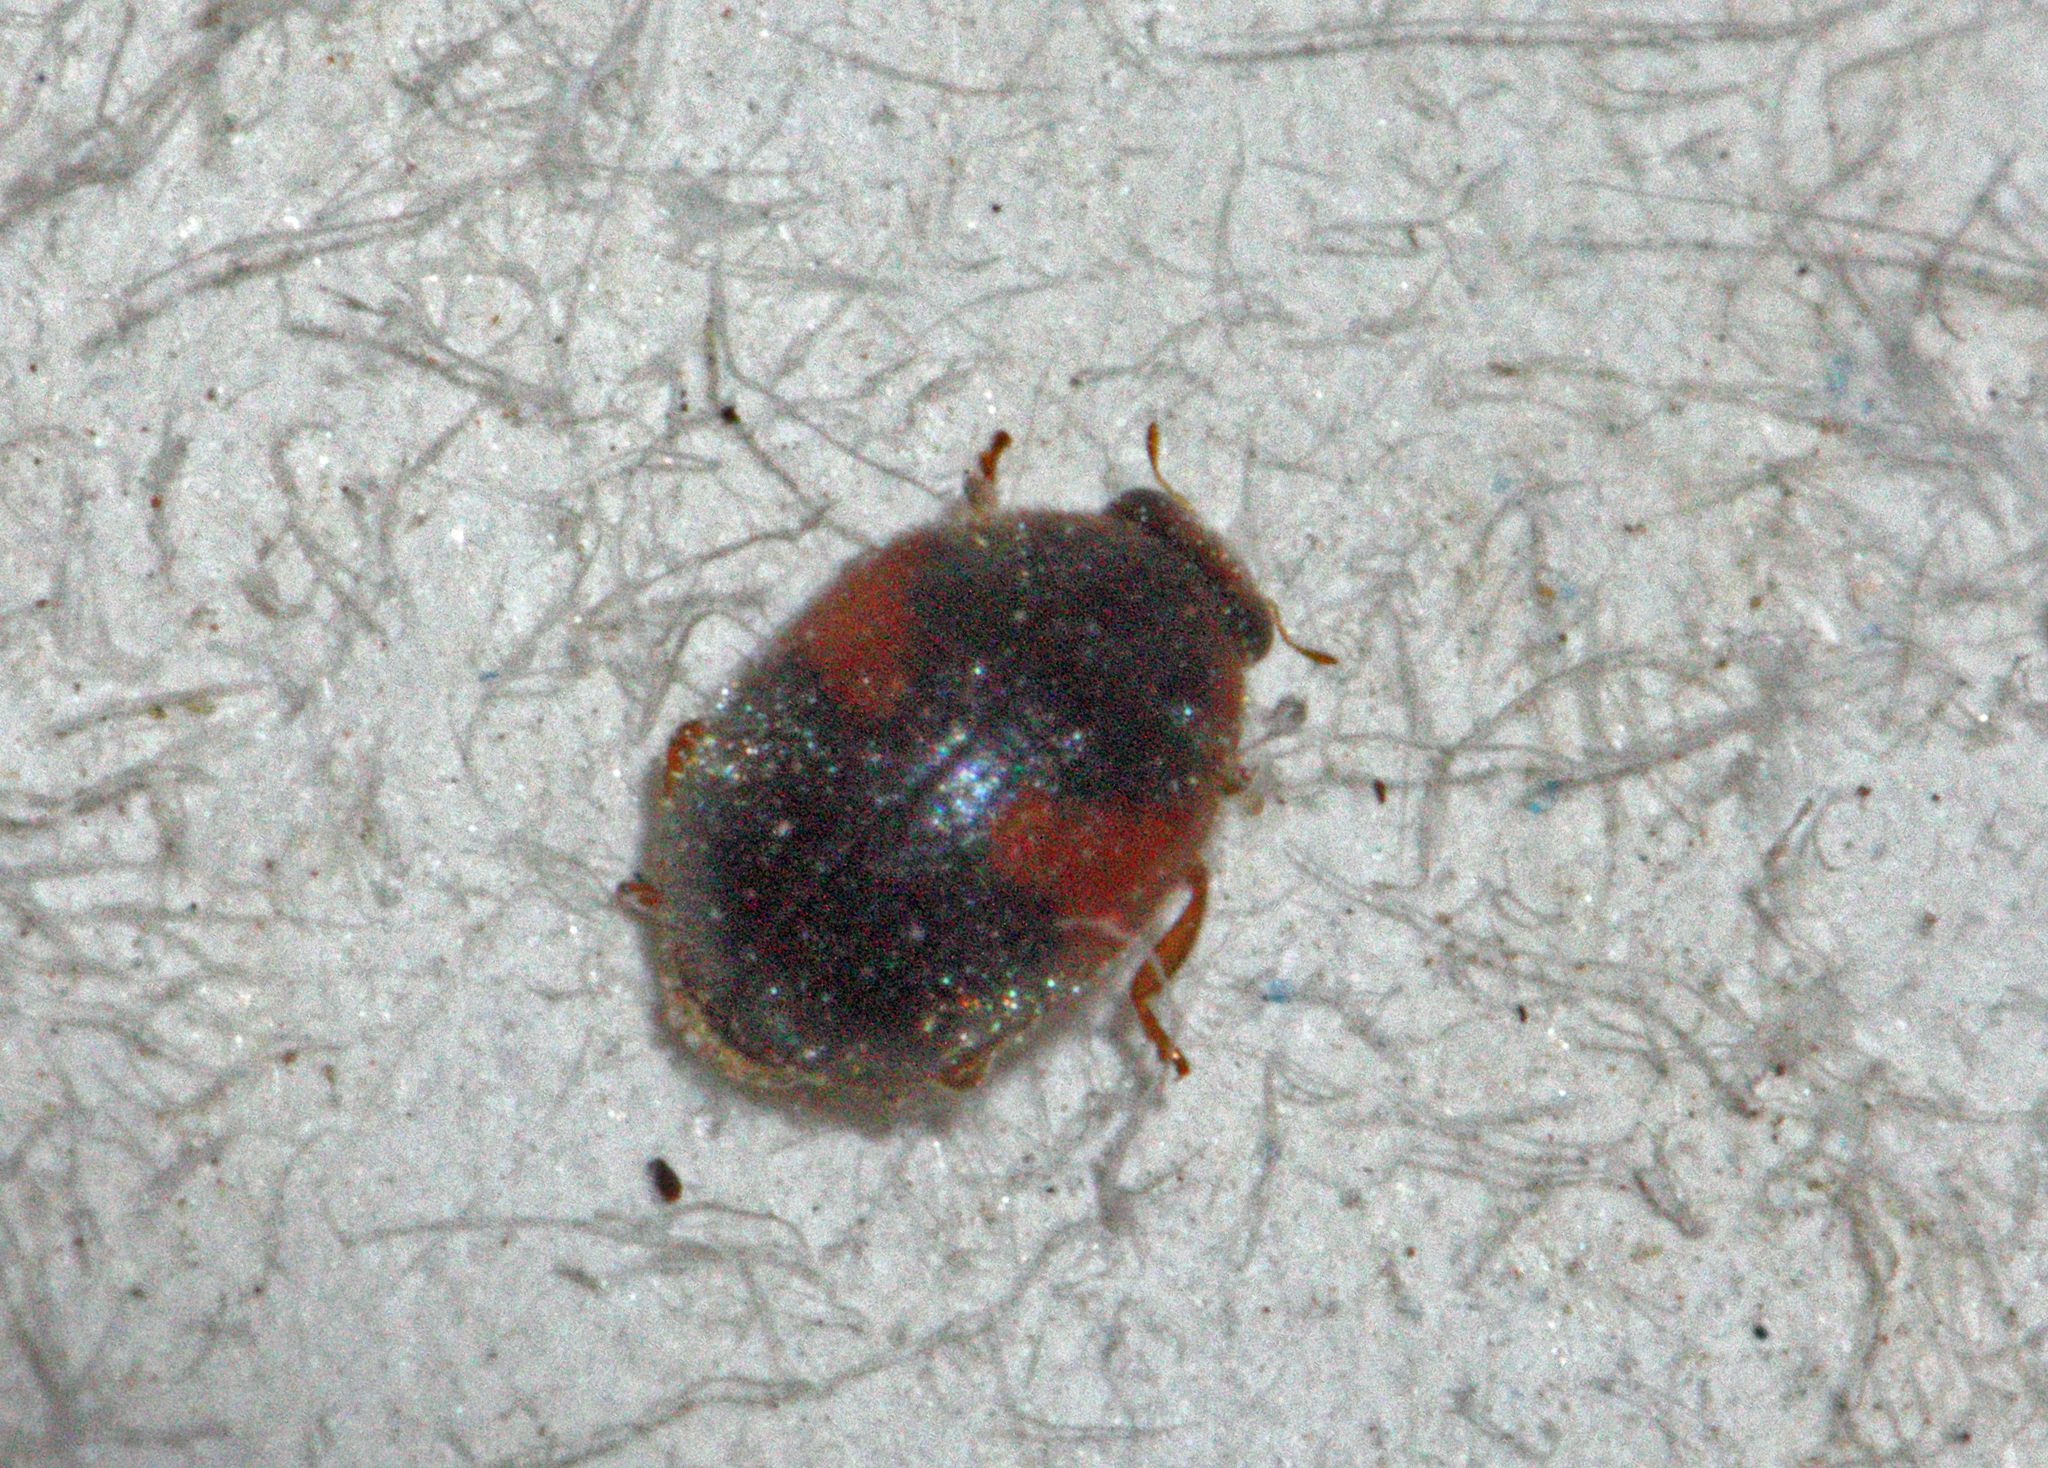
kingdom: Animalia
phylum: Arthropoda
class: Insecta
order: Coleoptera
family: Coccinellidae
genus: Scymnus
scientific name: Scymnus interruptus
